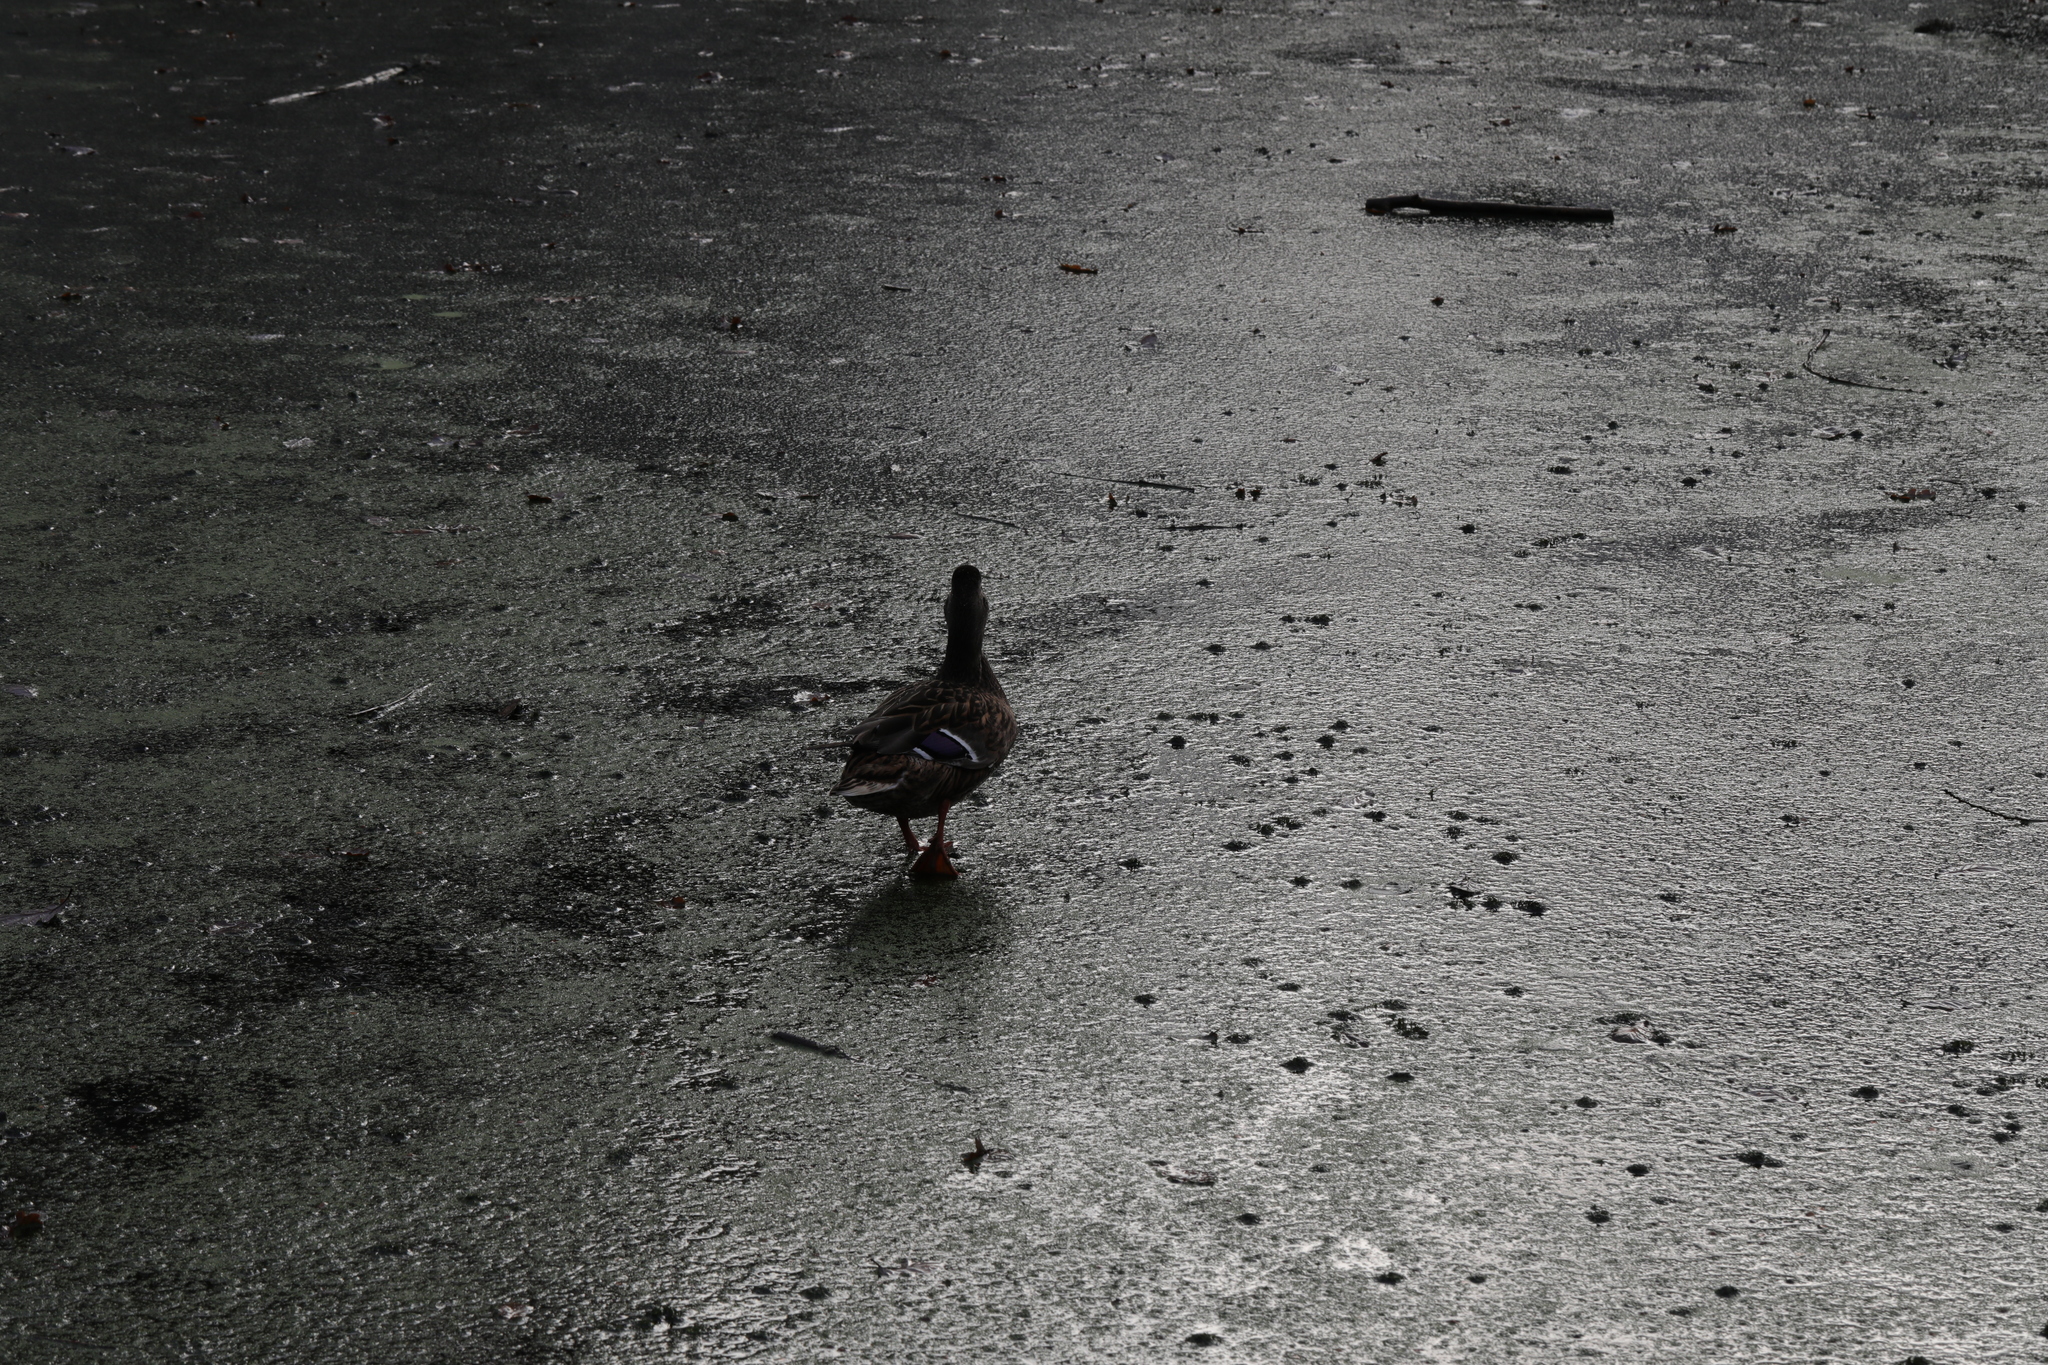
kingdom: Animalia
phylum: Chordata
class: Aves
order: Anseriformes
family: Anatidae
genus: Anas
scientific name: Anas platyrhynchos
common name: Mallard
